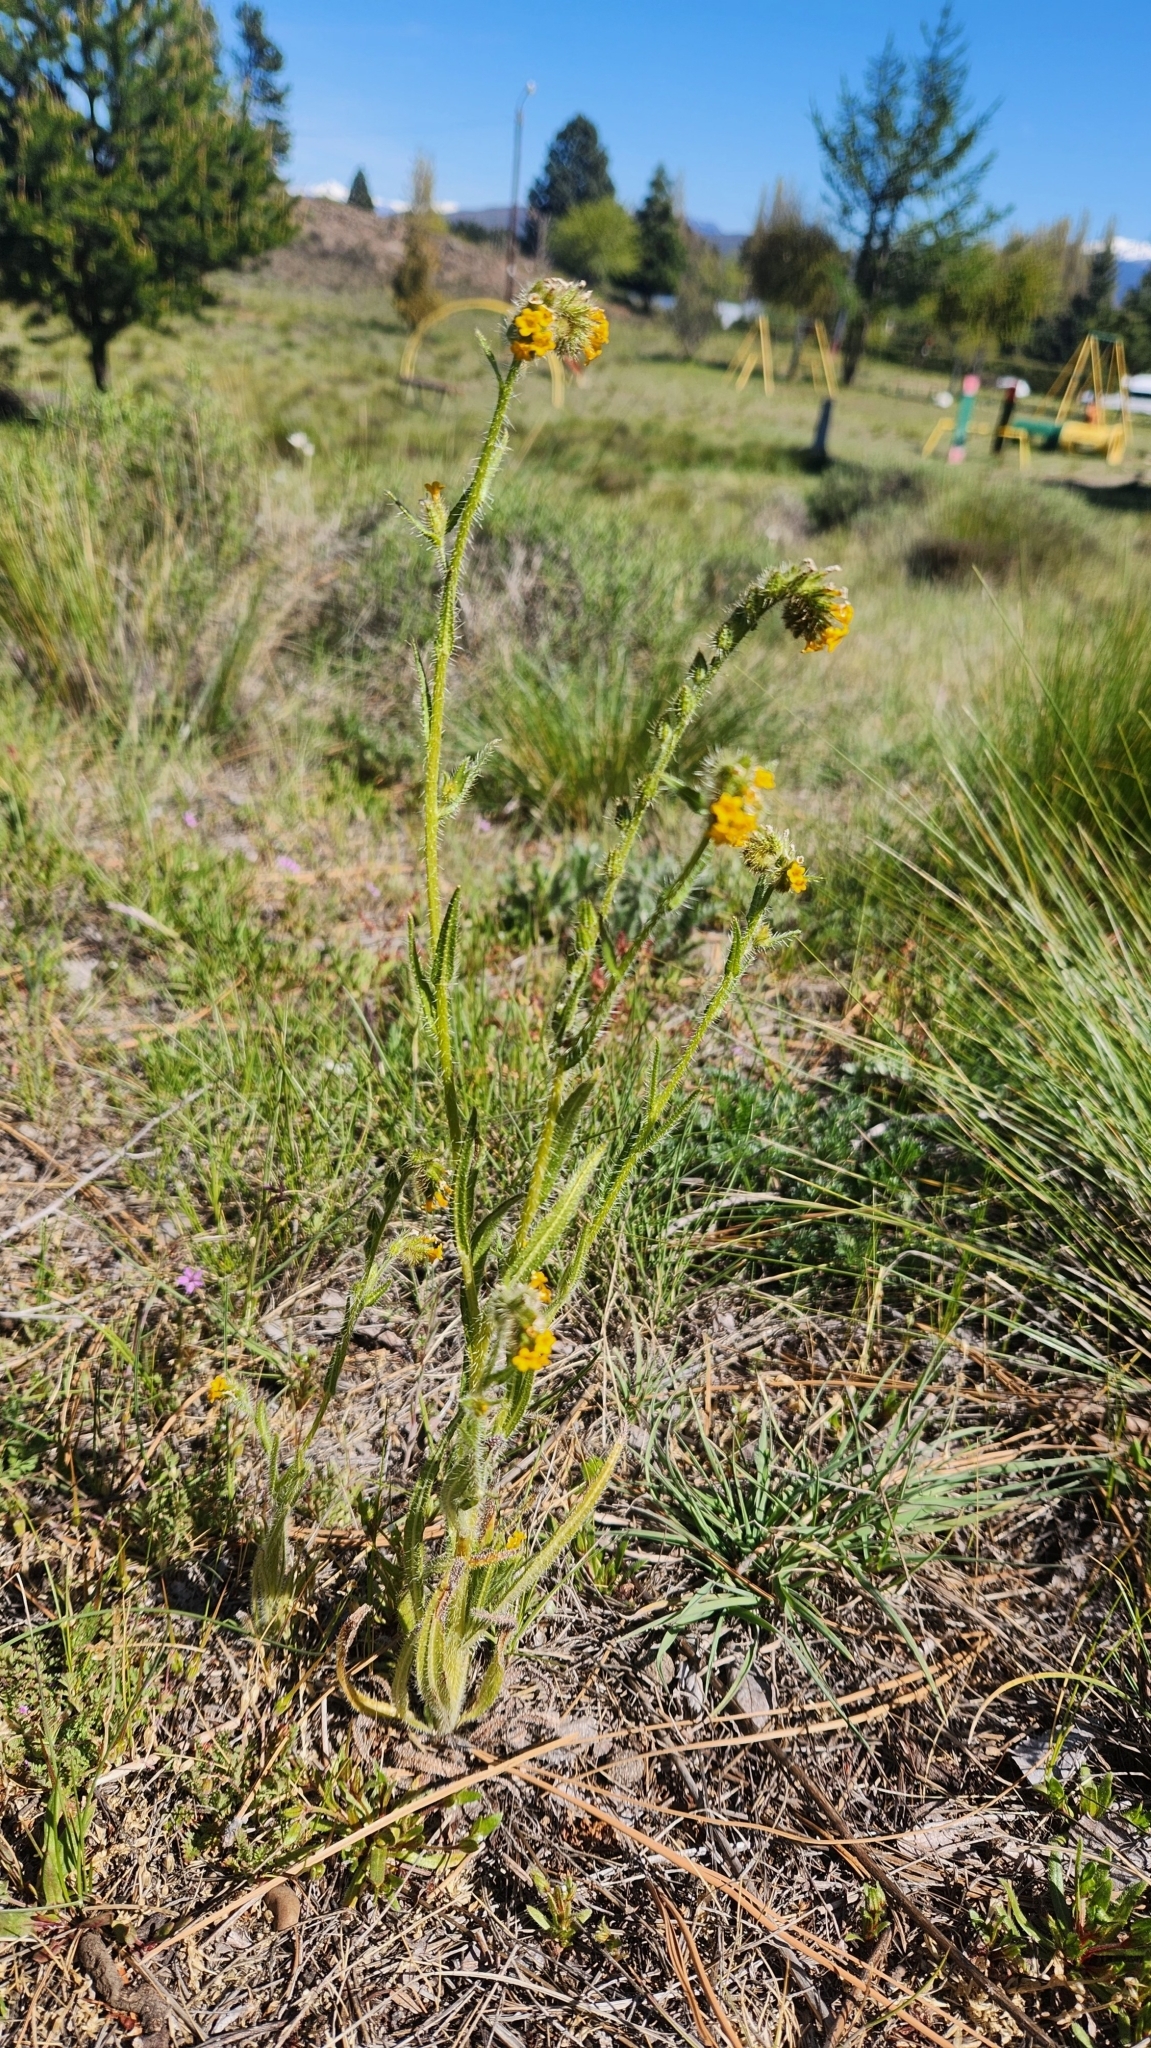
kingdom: Plantae
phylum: Tracheophyta
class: Magnoliopsida
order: Boraginales
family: Boraginaceae
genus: Amsinckia
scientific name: Amsinckia calycina
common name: Hairy fiddleneck
